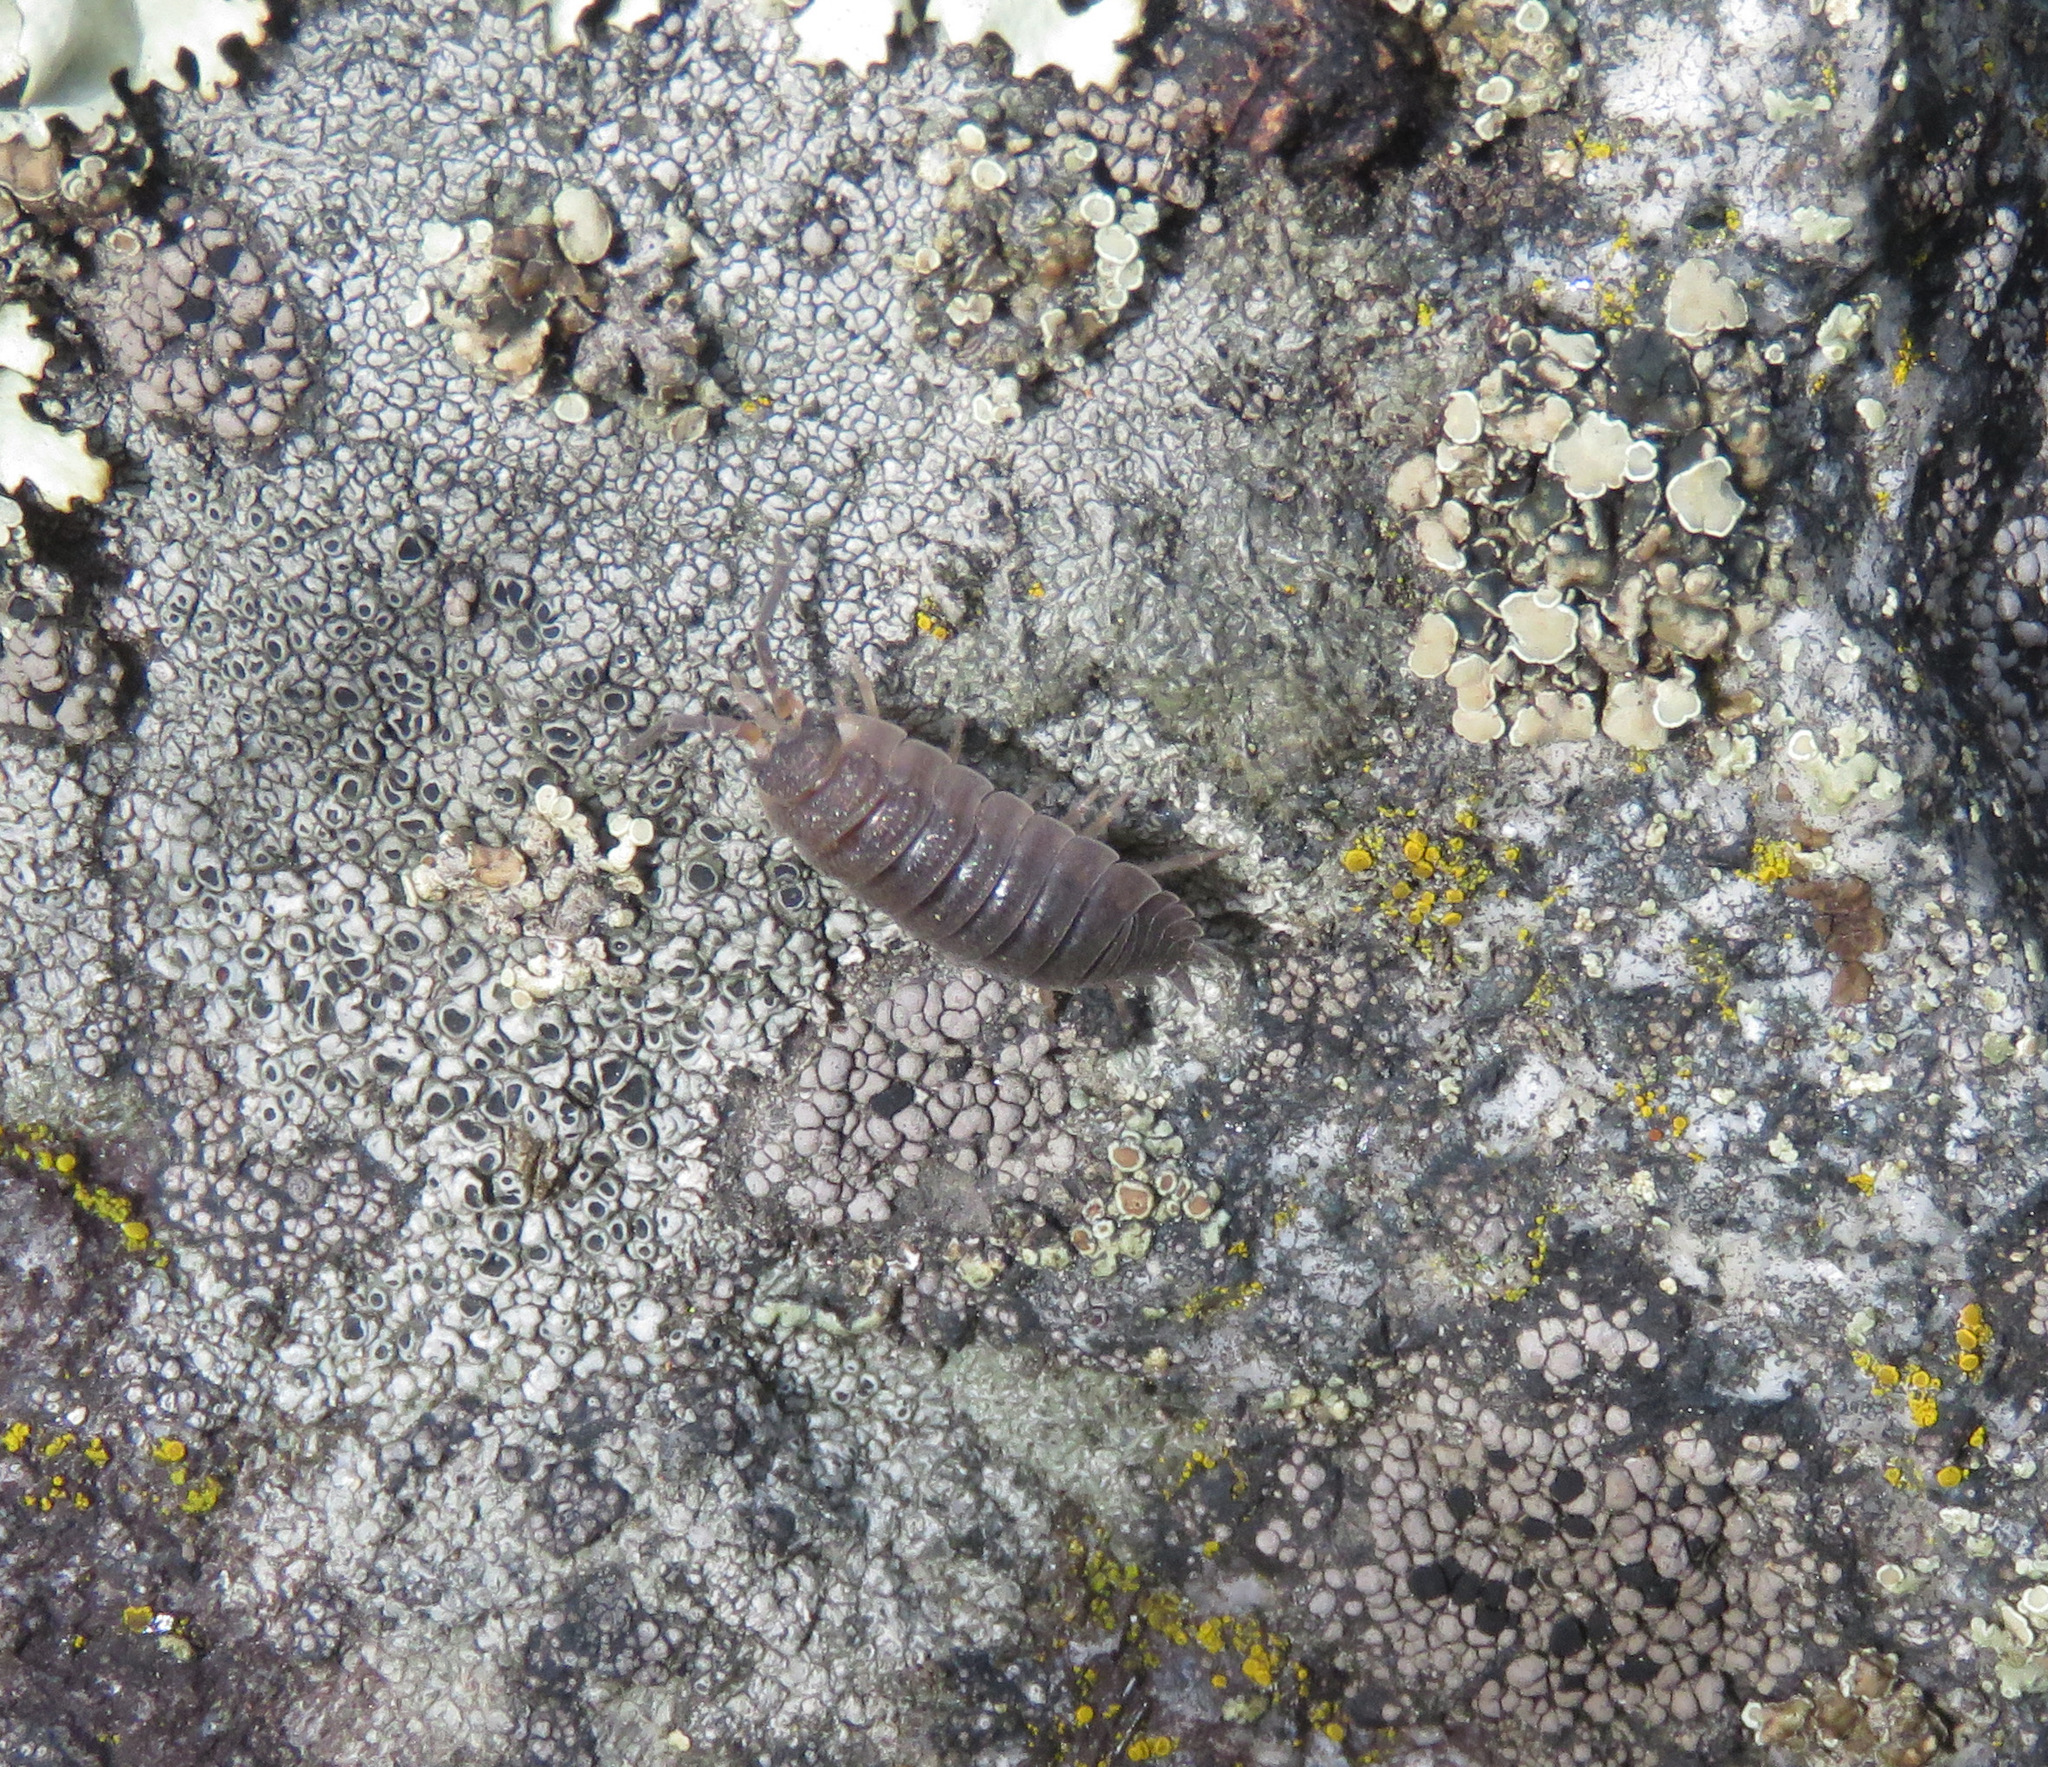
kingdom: Animalia
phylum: Arthropoda
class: Malacostraca
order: Isopoda
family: Porcellionidae
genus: Porcellio
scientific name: Porcellio scaber
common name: Common rough woodlouse
